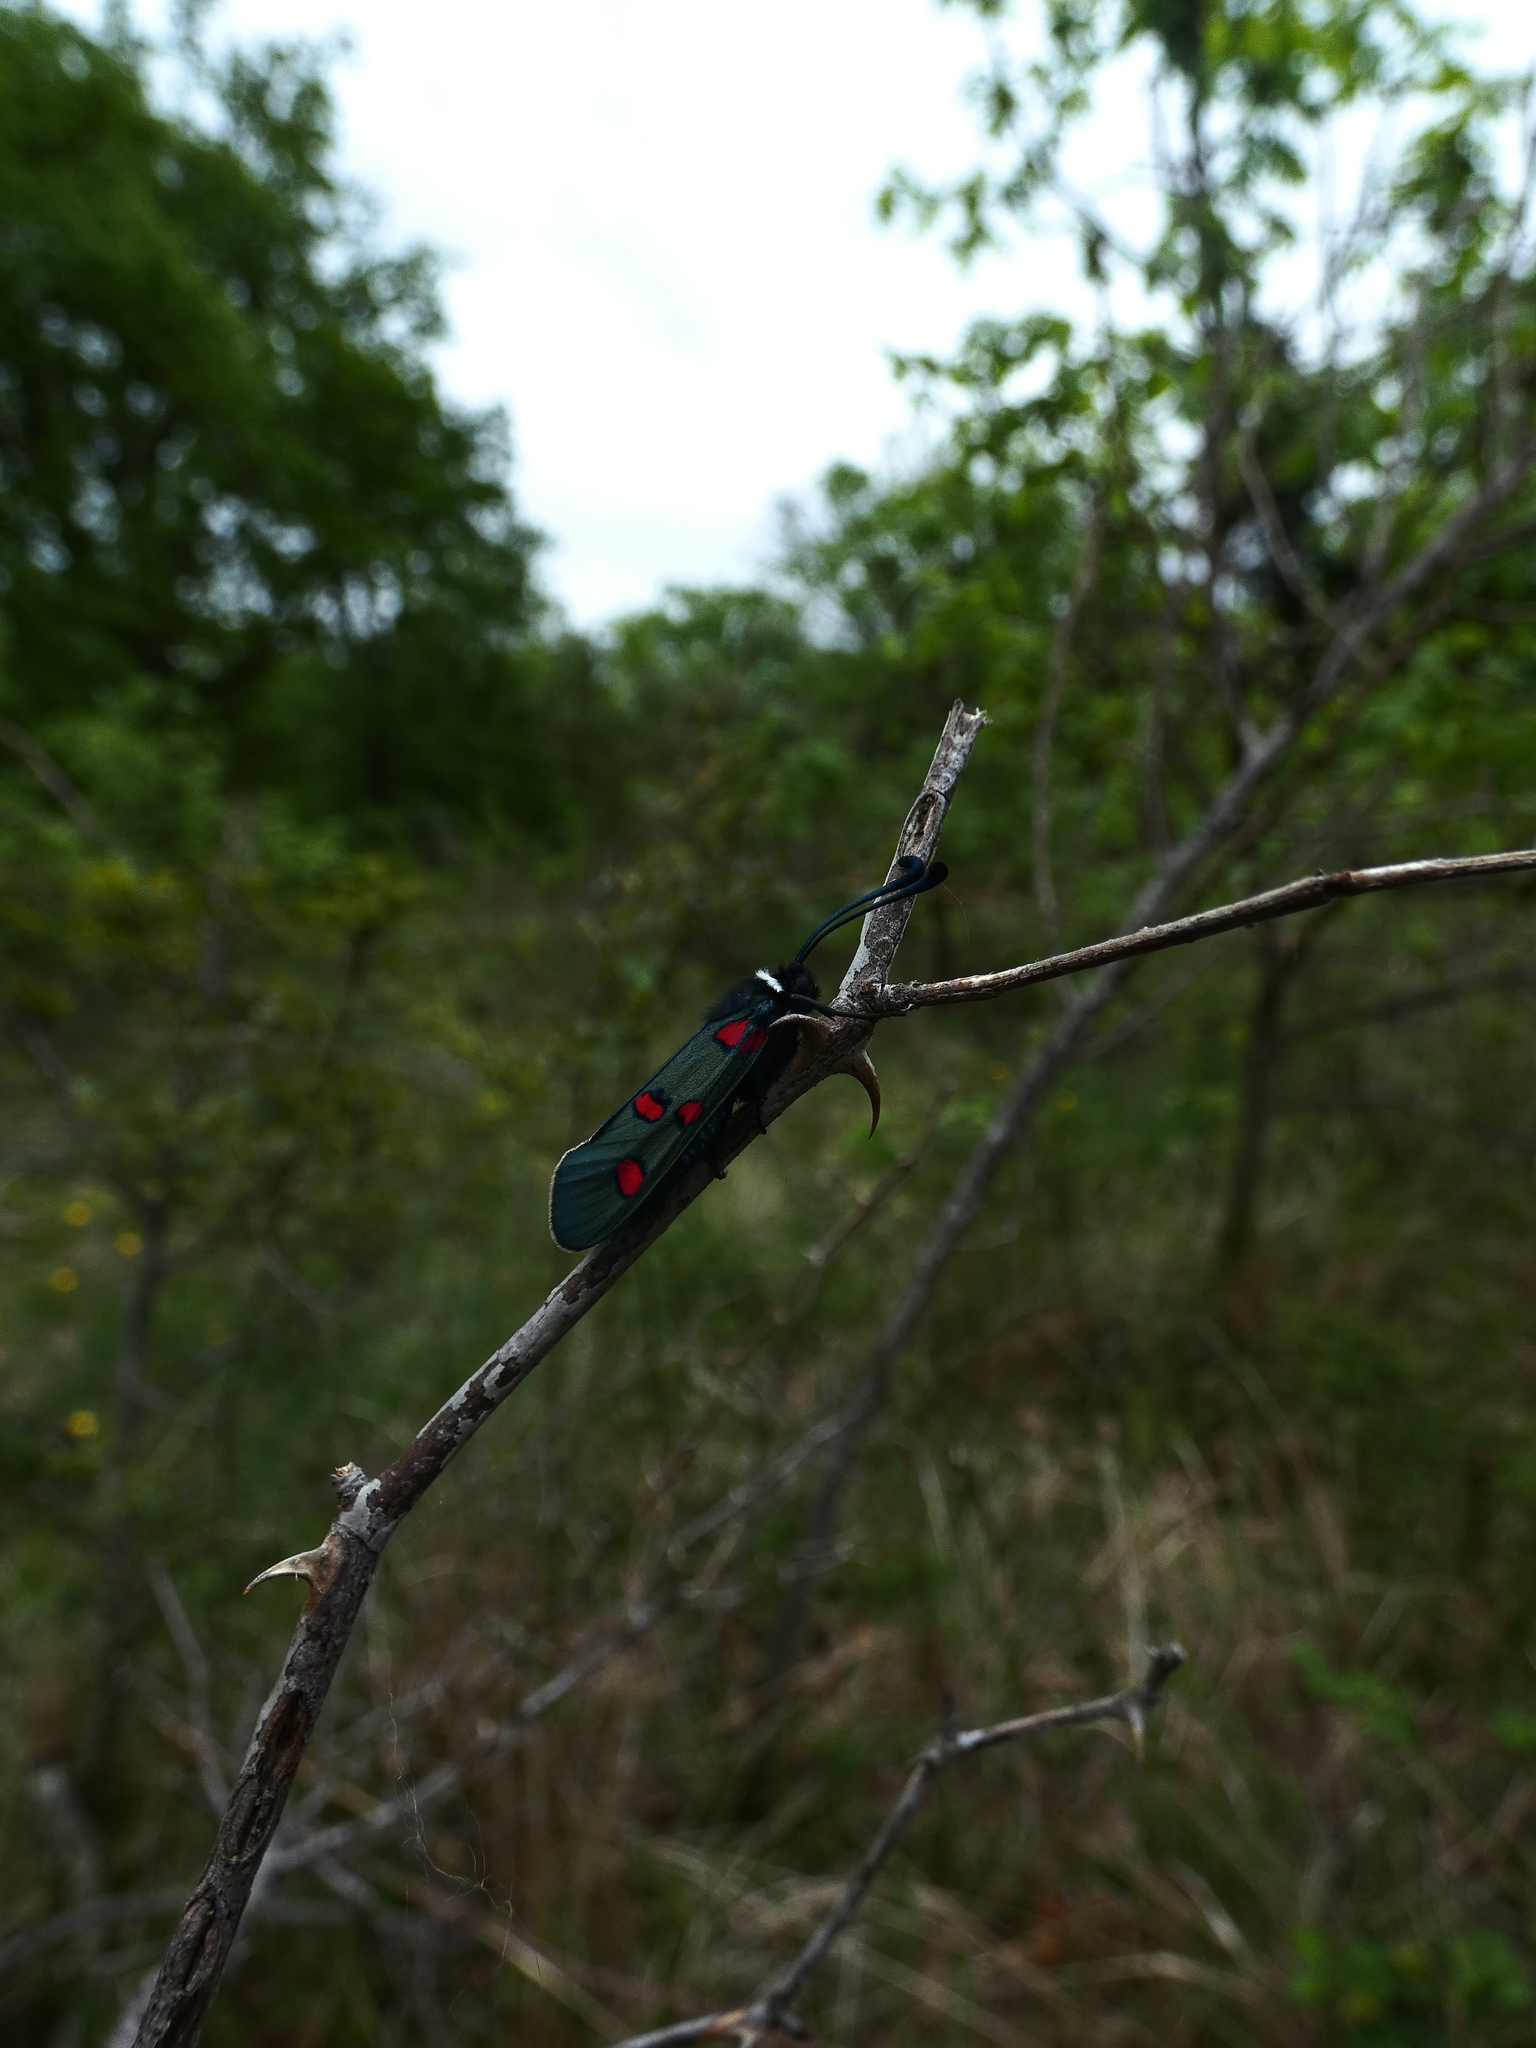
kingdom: Animalia
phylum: Arthropoda
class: Insecta
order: Lepidoptera
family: Zygaenidae
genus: Zygaena
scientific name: Zygaena lavandulae
